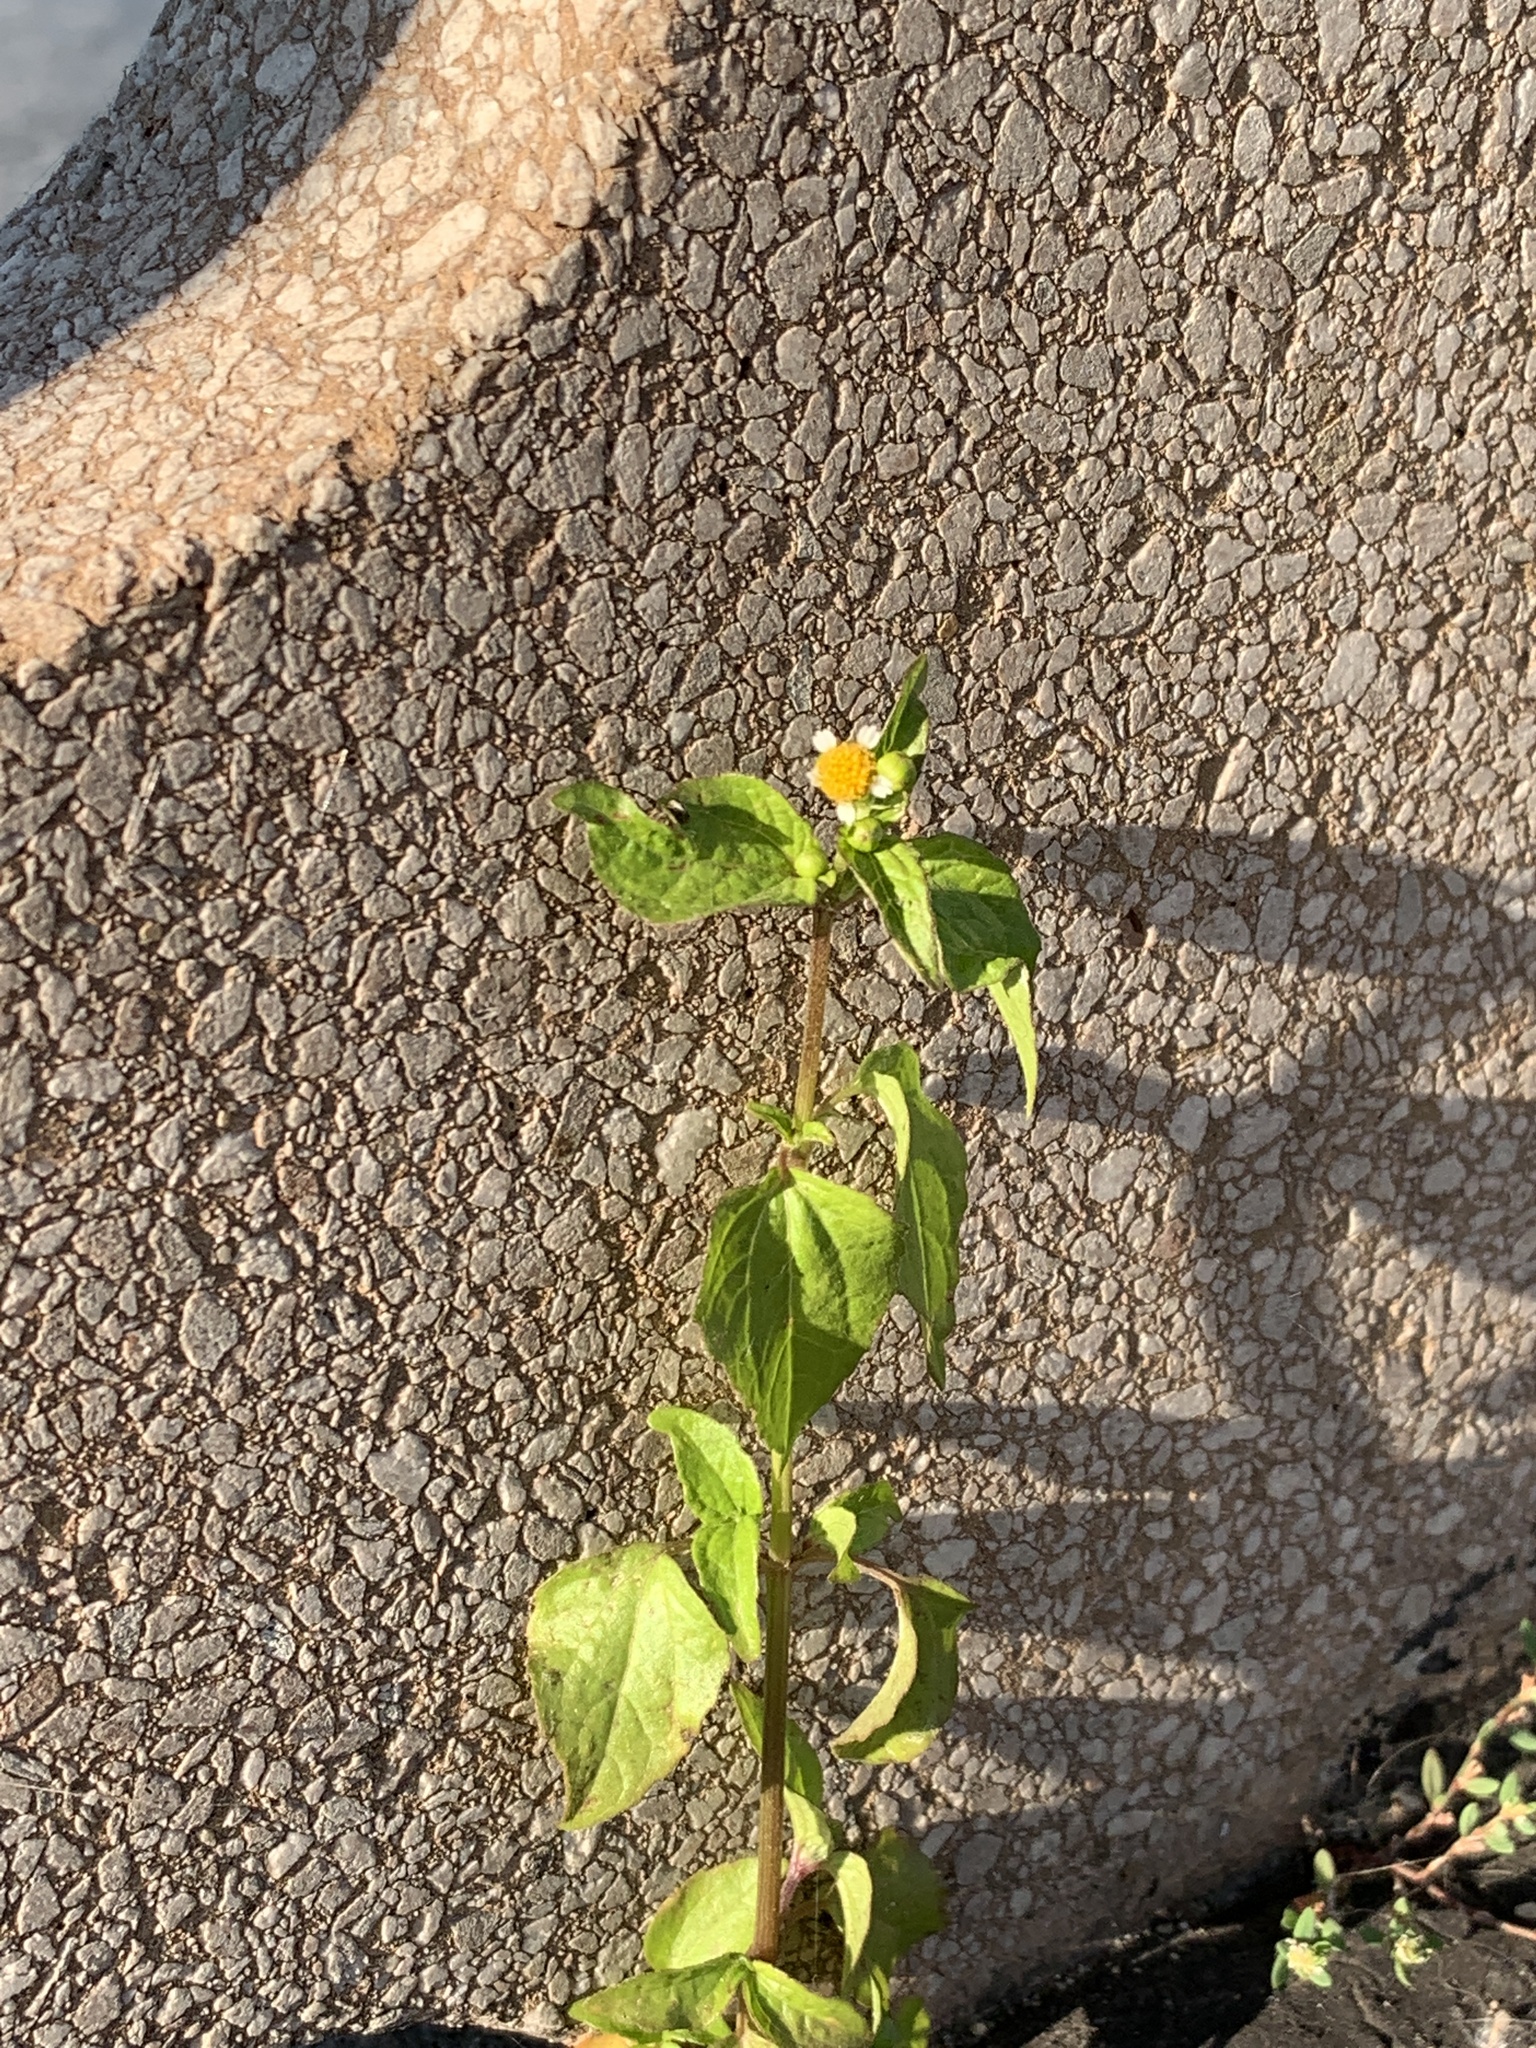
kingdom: Plantae
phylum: Tracheophyta
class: Magnoliopsida
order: Asterales
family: Asteraceae
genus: Galinsoga
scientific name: Galinsoga parviflora
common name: Gallant soldier
